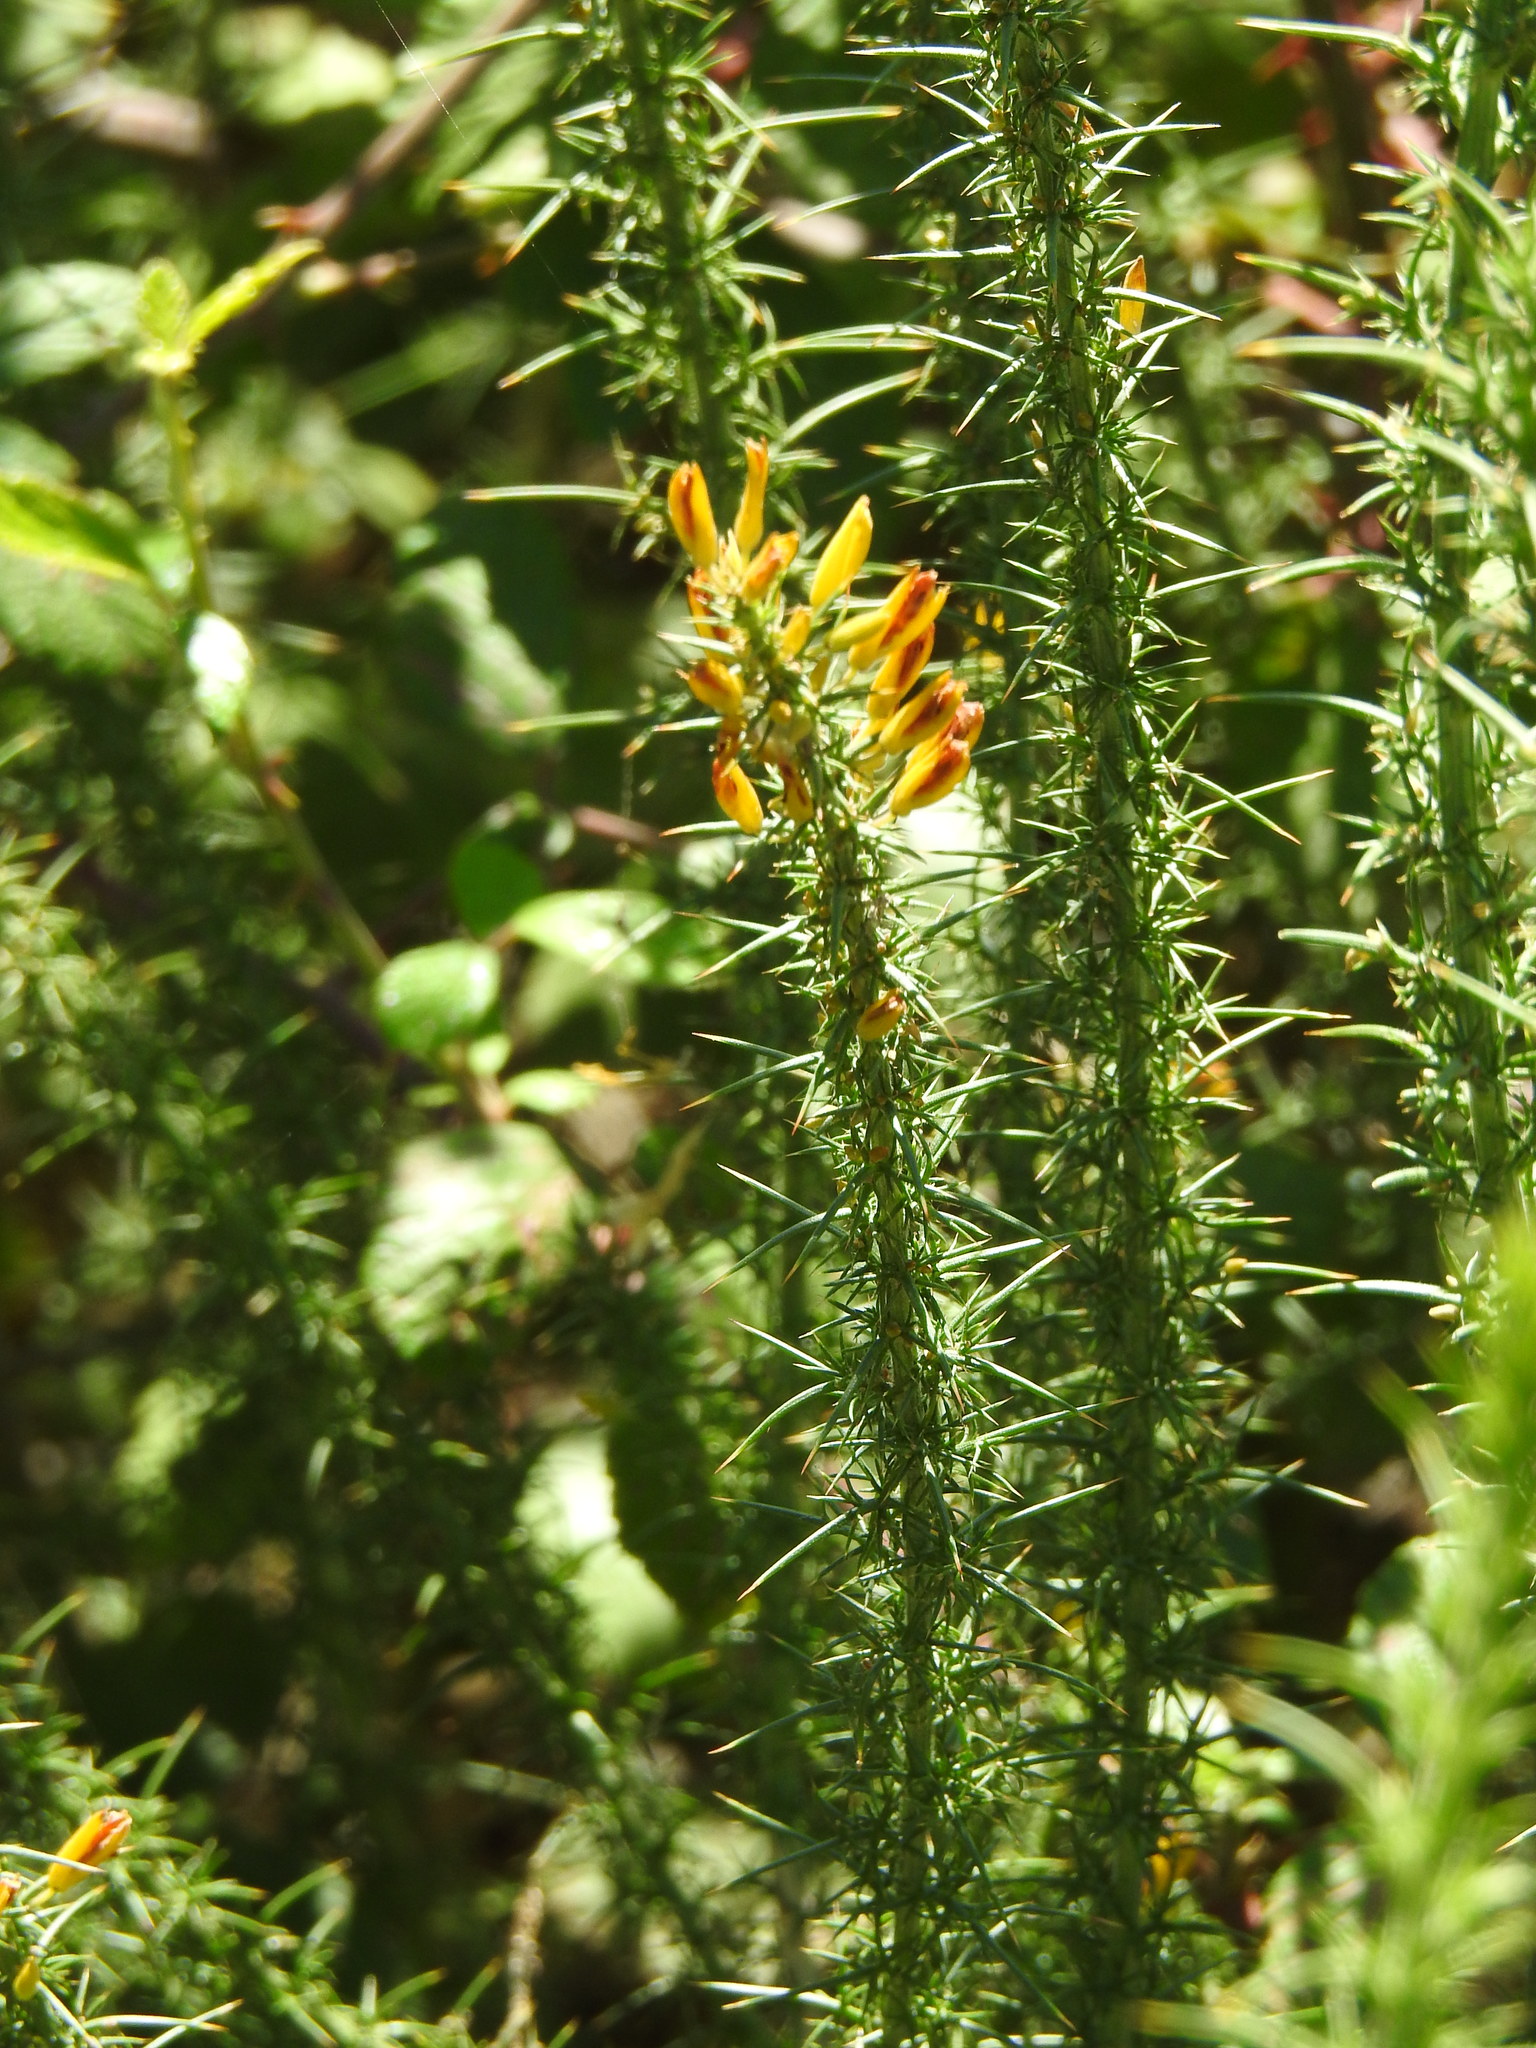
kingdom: Plantae
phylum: Tracheophyta
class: Magnoliopsida
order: Fabales
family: Fabaceae
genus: Ulex
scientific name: Ulex minor
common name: Dwarf gorse
